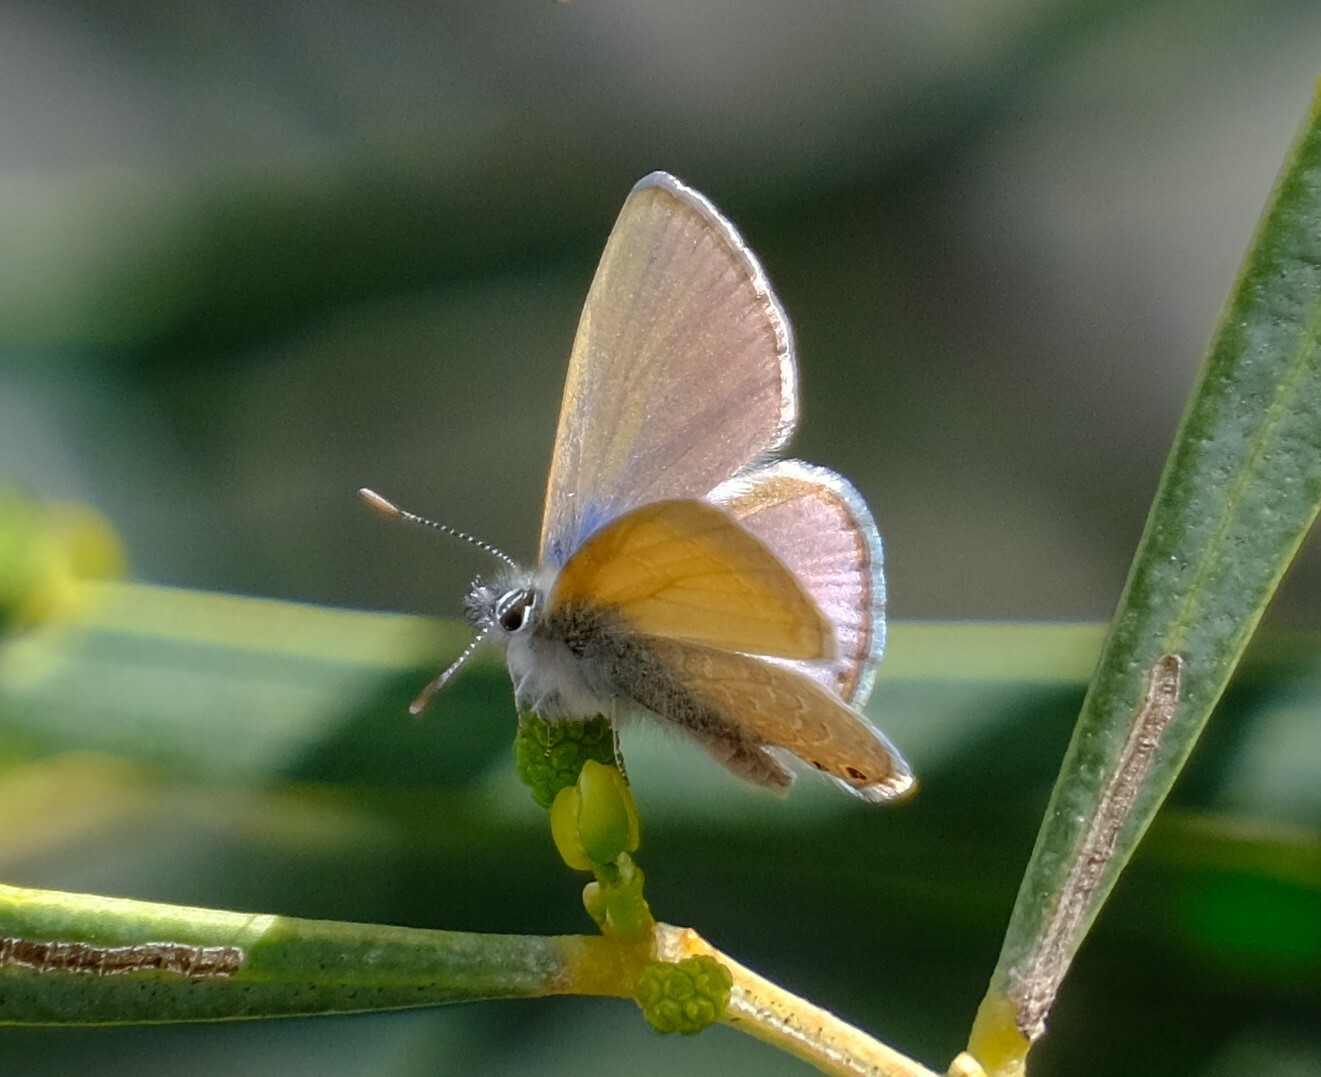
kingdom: Animalia
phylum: Arthropoda
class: Insecta
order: Lepidoptera
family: Lycaenidae
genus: Nacaduba
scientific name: Nacaduba biocellata
